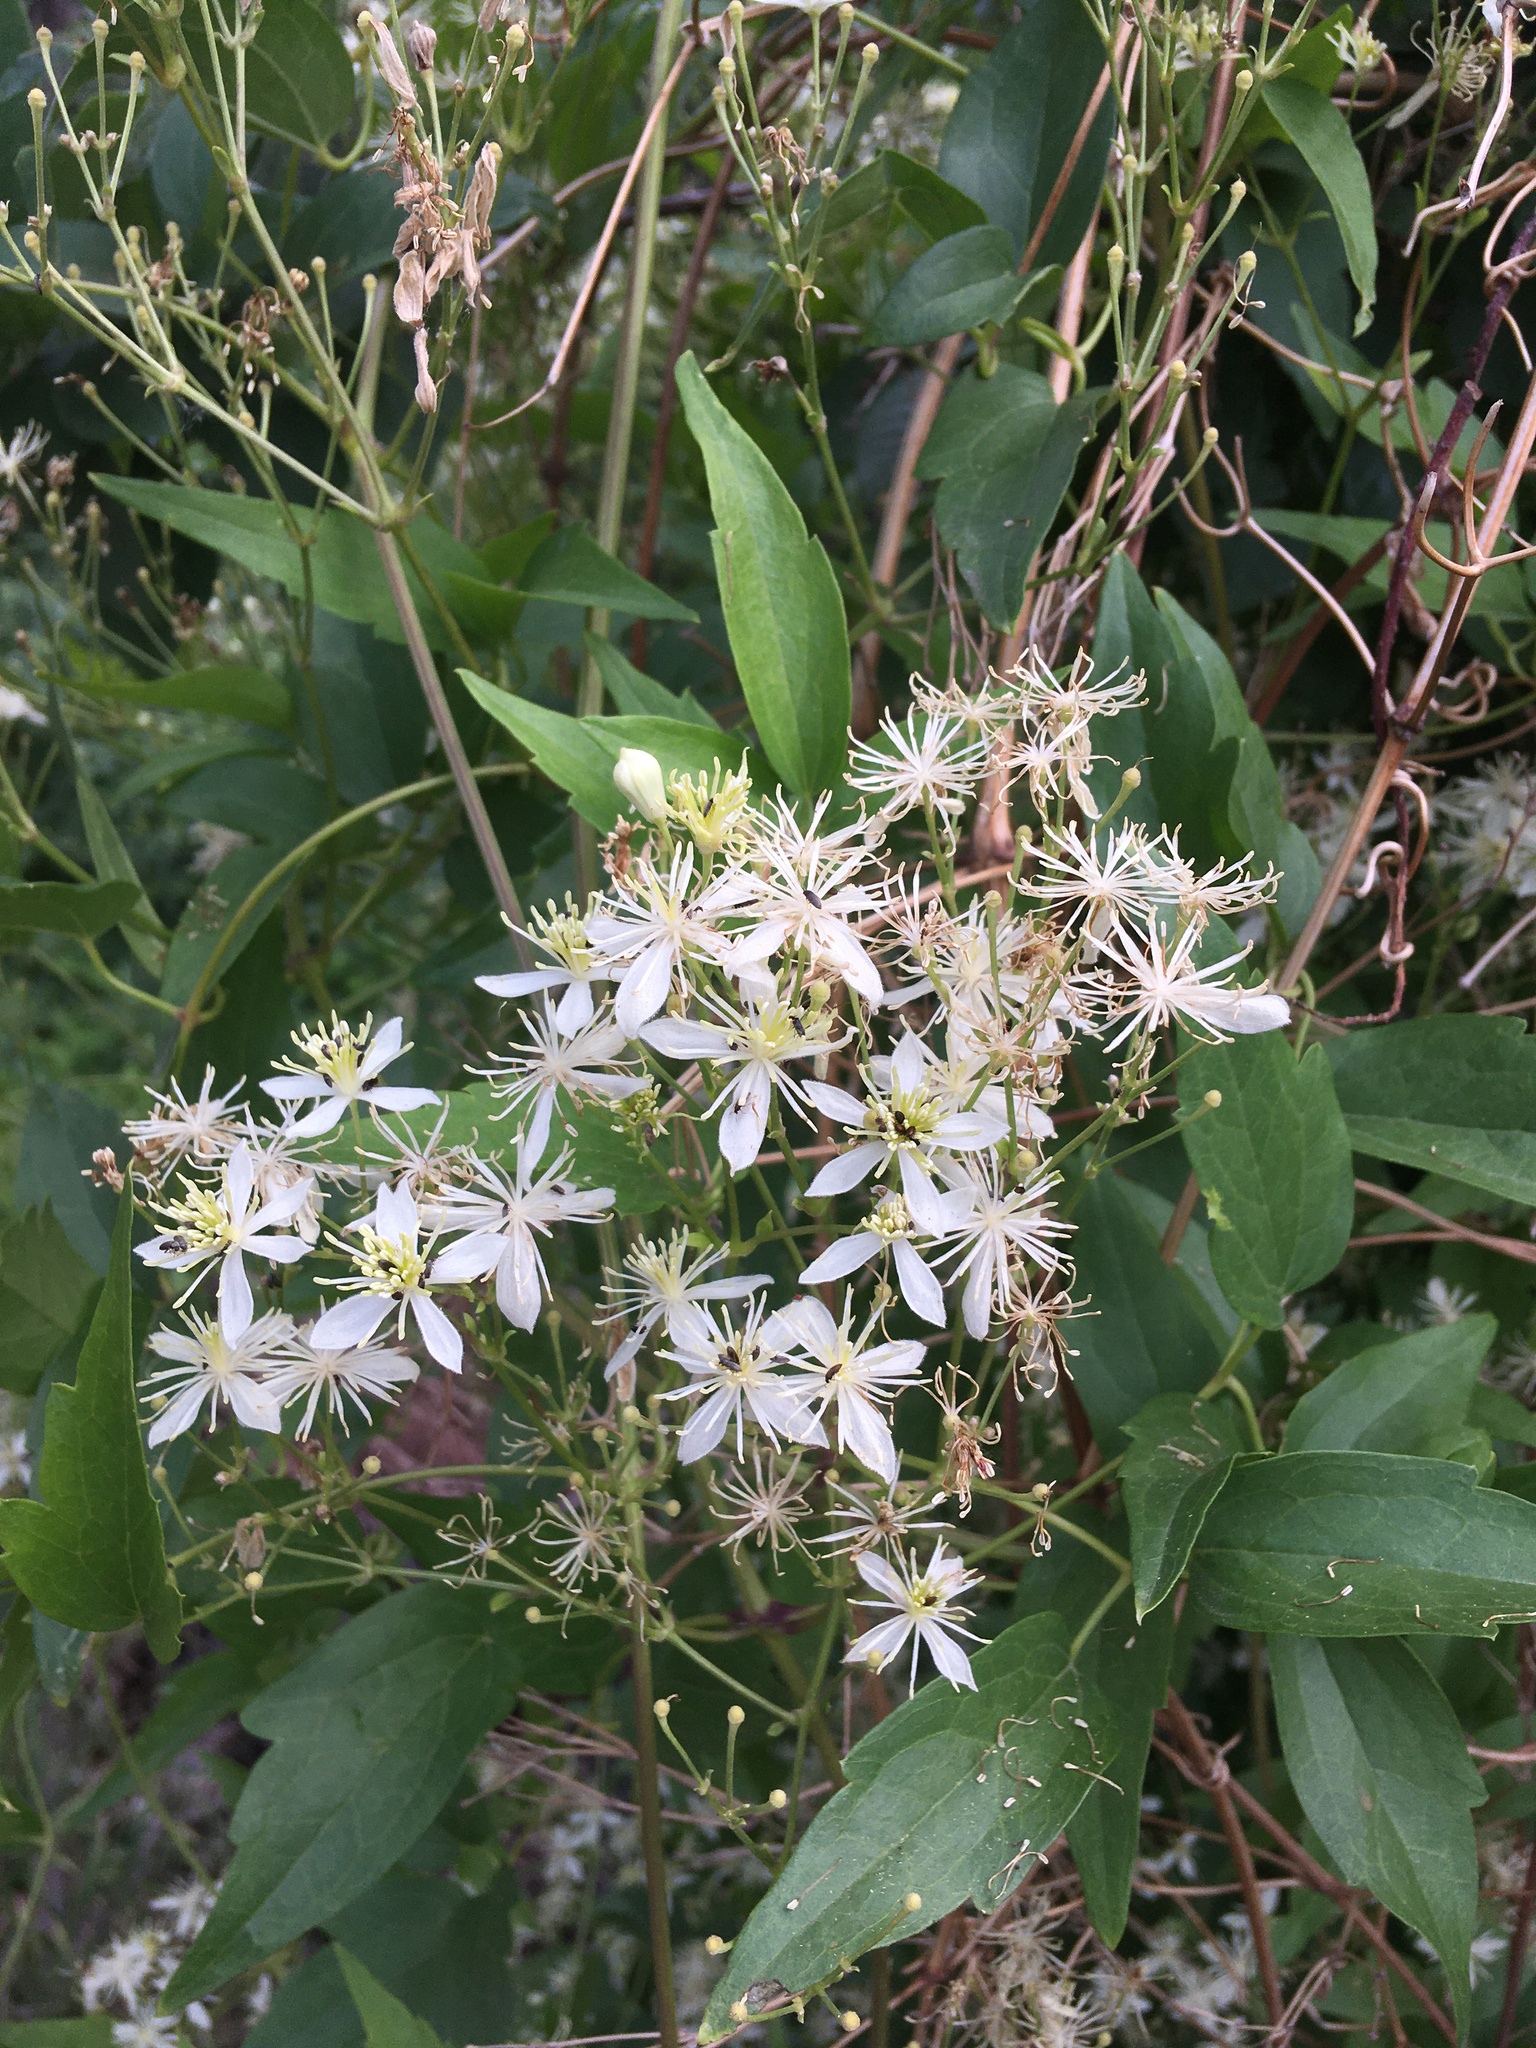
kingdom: Plantae
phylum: Tracheophyta
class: Magnoliopsida
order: Ranunculales
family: Ranunculaceae
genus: Clematis
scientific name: Clematis ligusticifolia
